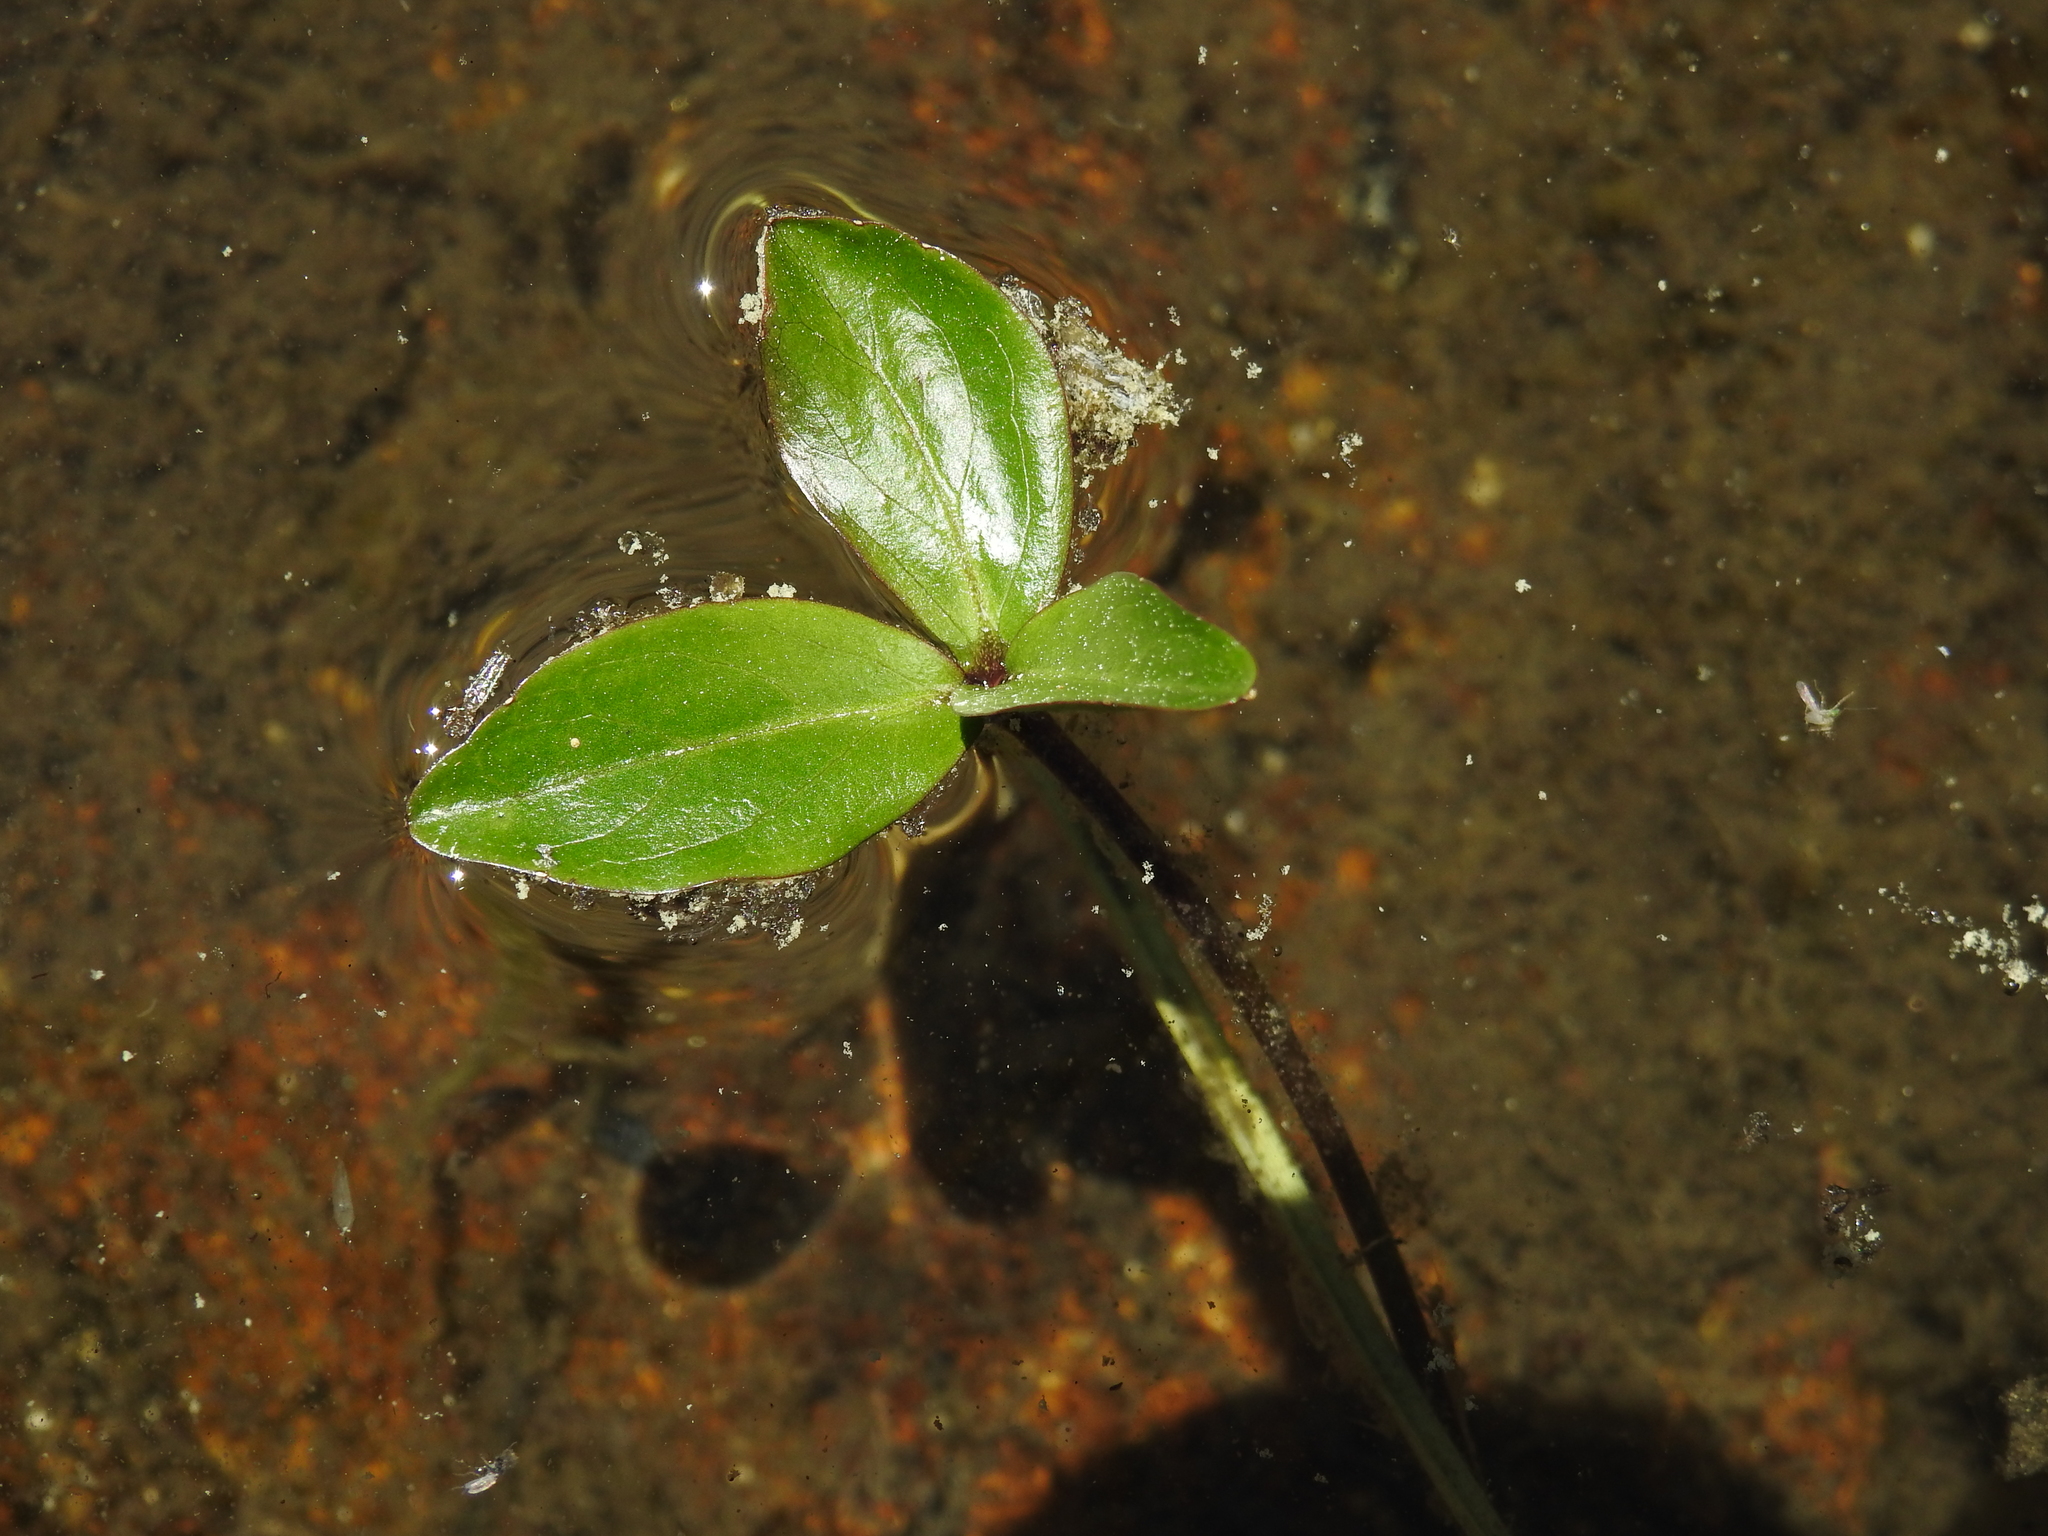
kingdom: Plantae
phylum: Tracheophyta
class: Magnoliopsida
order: Asterales
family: Menyanthaceae
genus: Menyanthes
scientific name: Menyanthes trifoliata
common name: Bogbean
